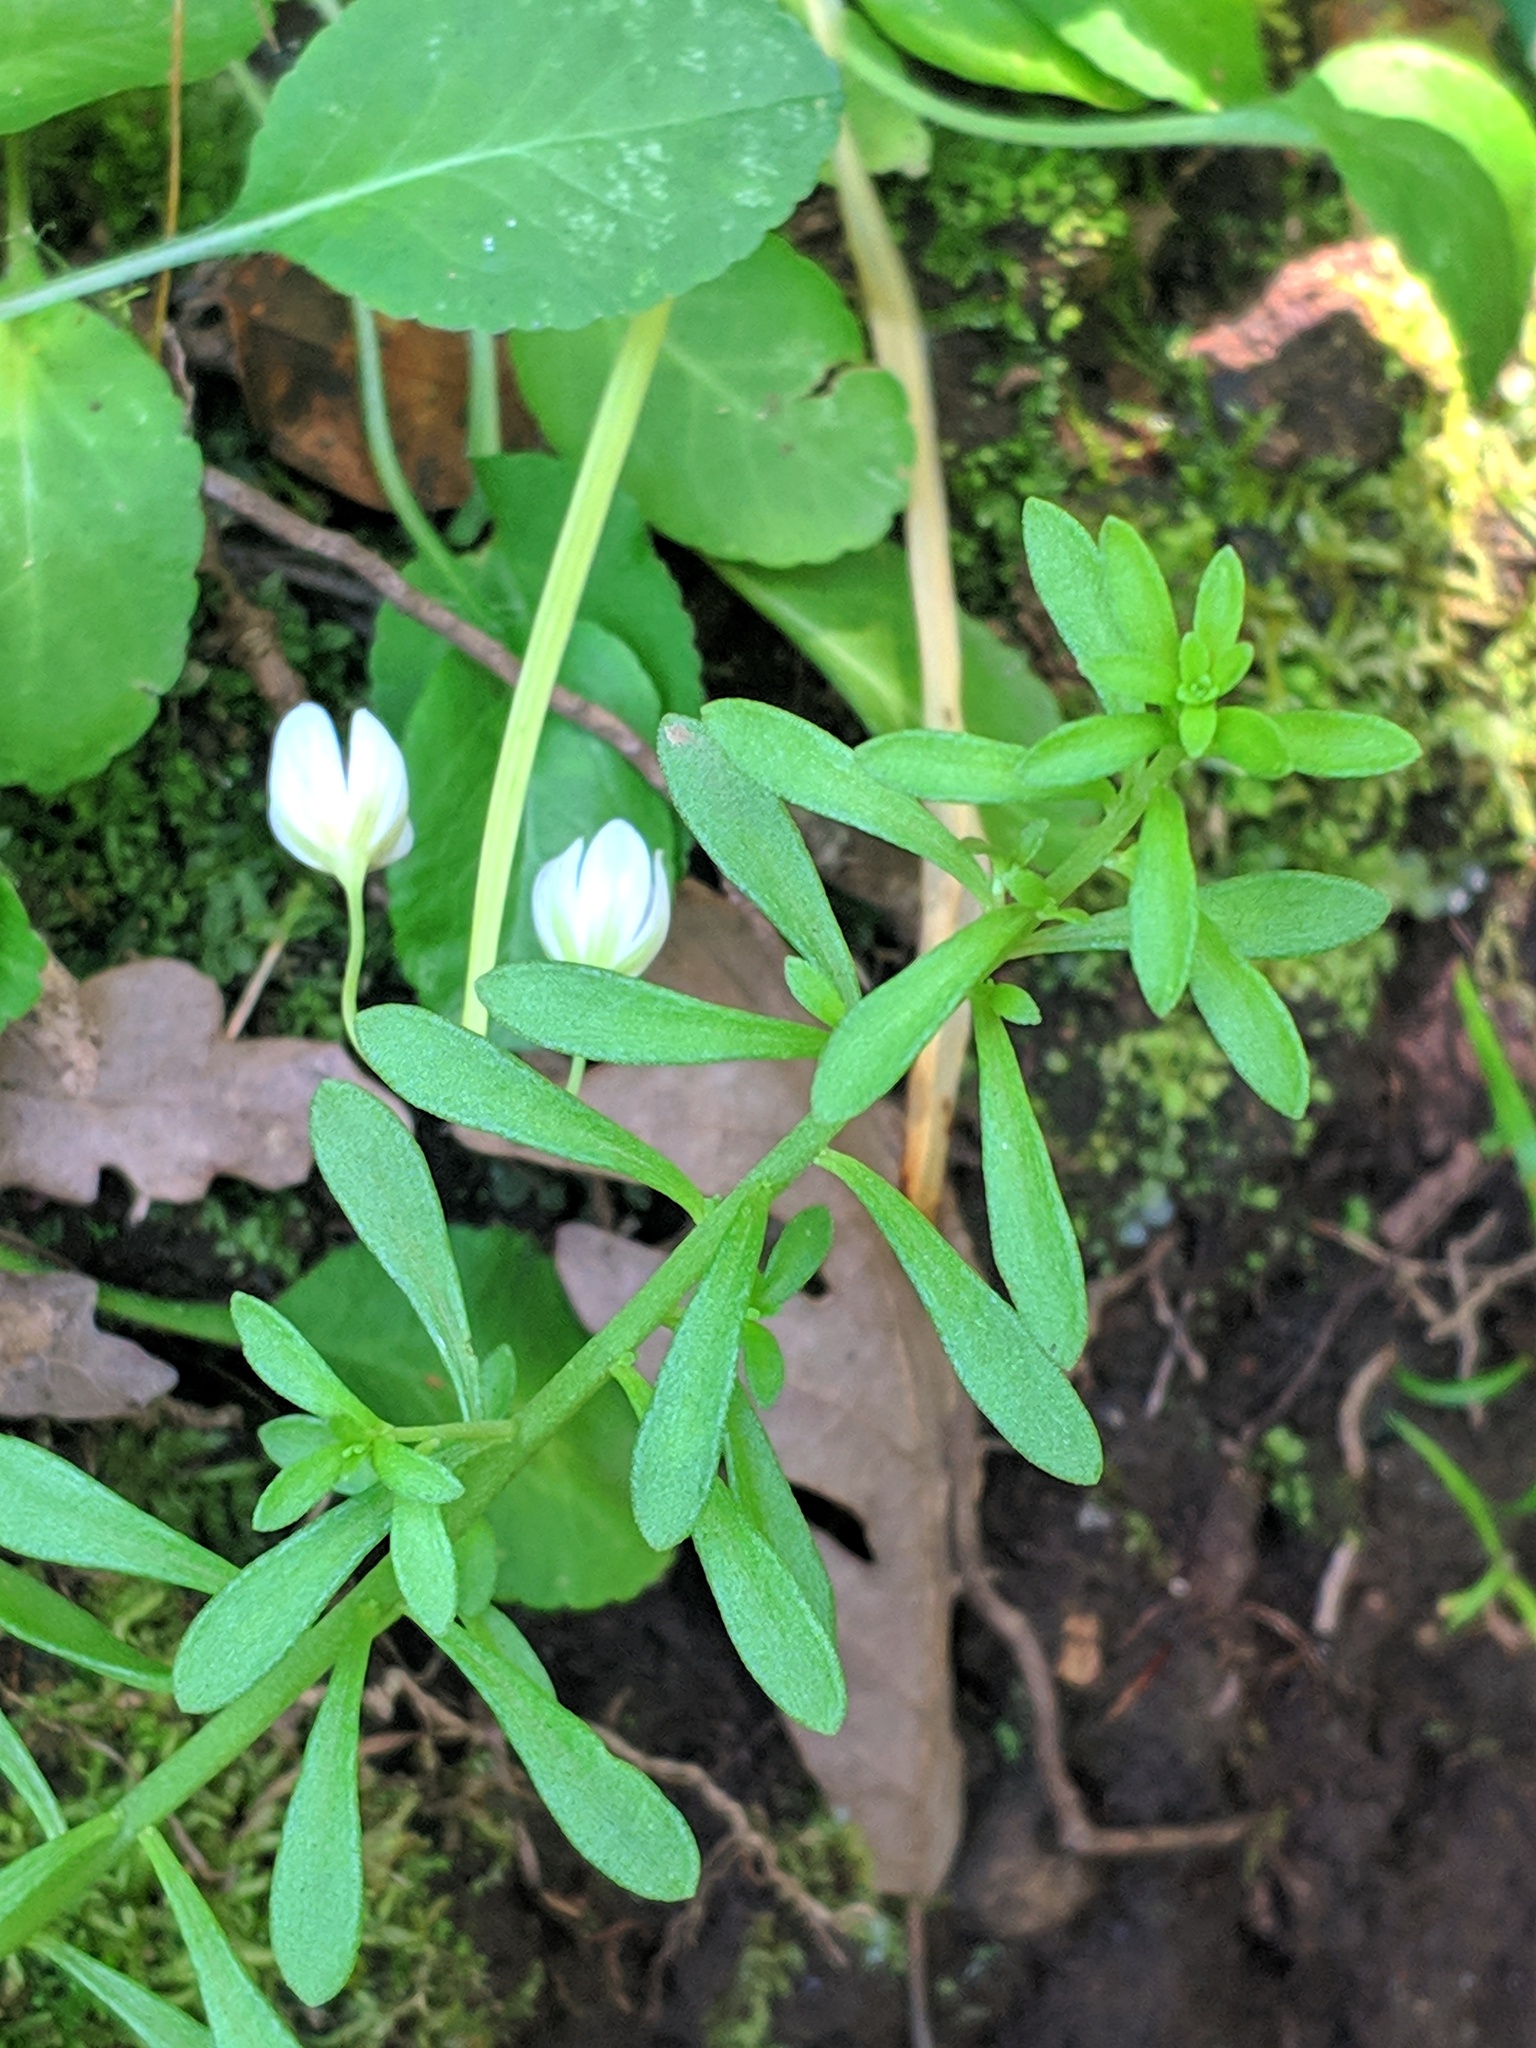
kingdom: Plantae
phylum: Tracheophyta
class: Magnoliopsida
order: Saxifragales
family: Crassulaceae
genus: Sedum
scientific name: Sedum cepaea
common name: Pink stonecrop
